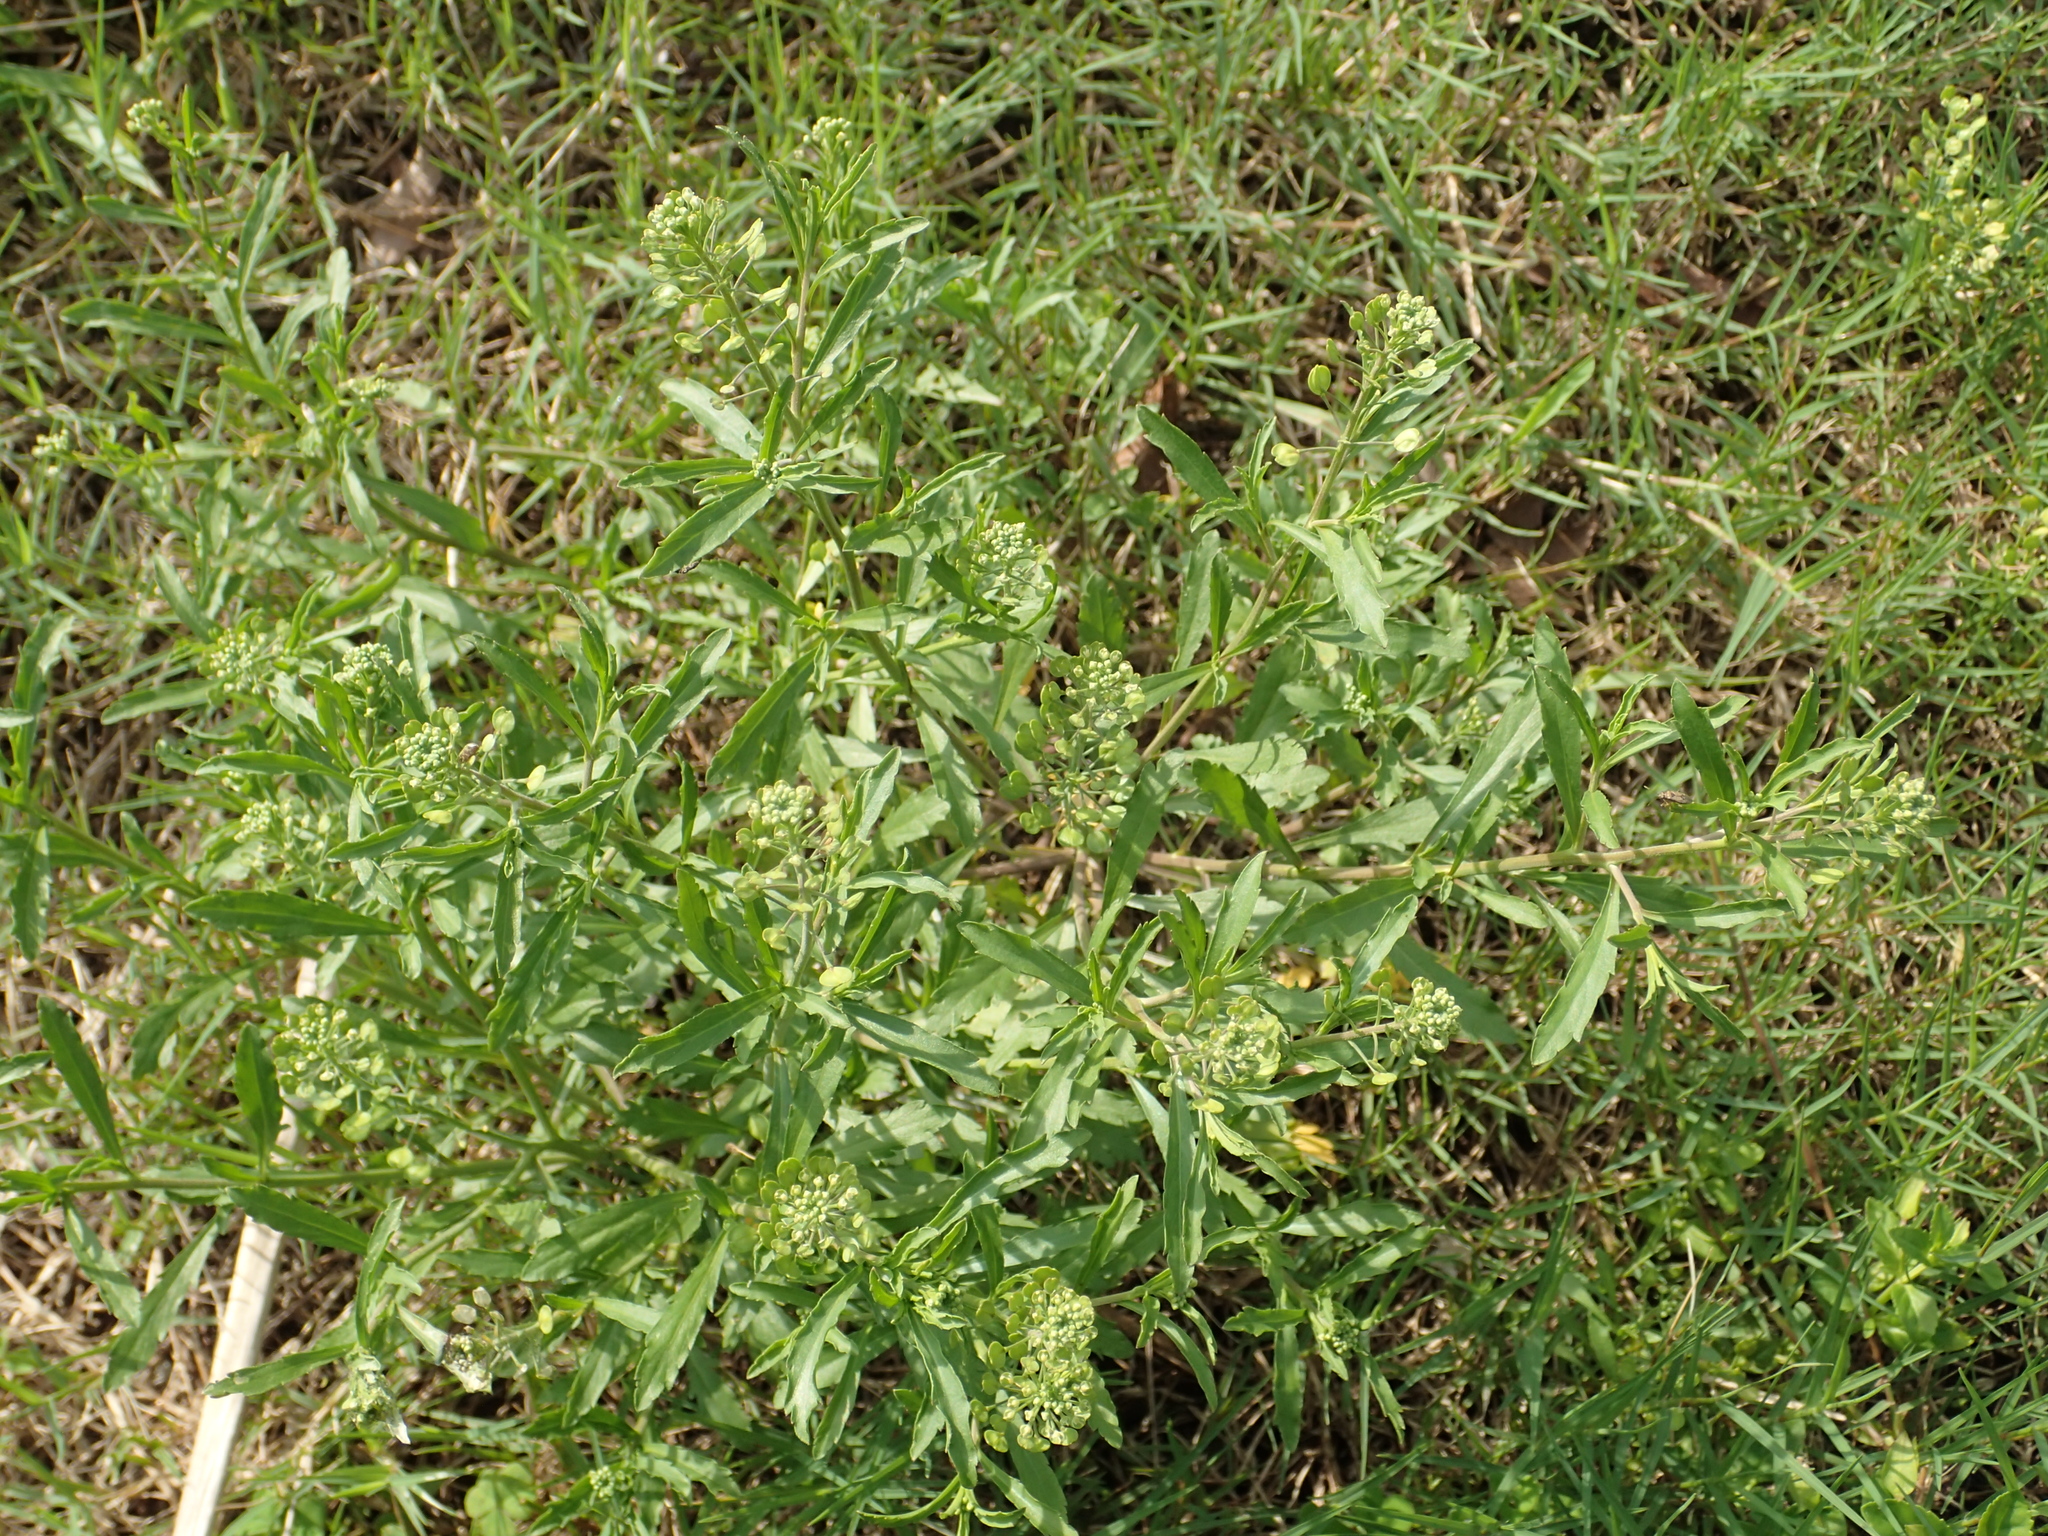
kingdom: Plantae
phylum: Tracheophyta
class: Magnoliopsida
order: Brassicales
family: Brassicaceae
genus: Lepidium
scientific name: Lepidium virginicum
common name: Least pepperwort
